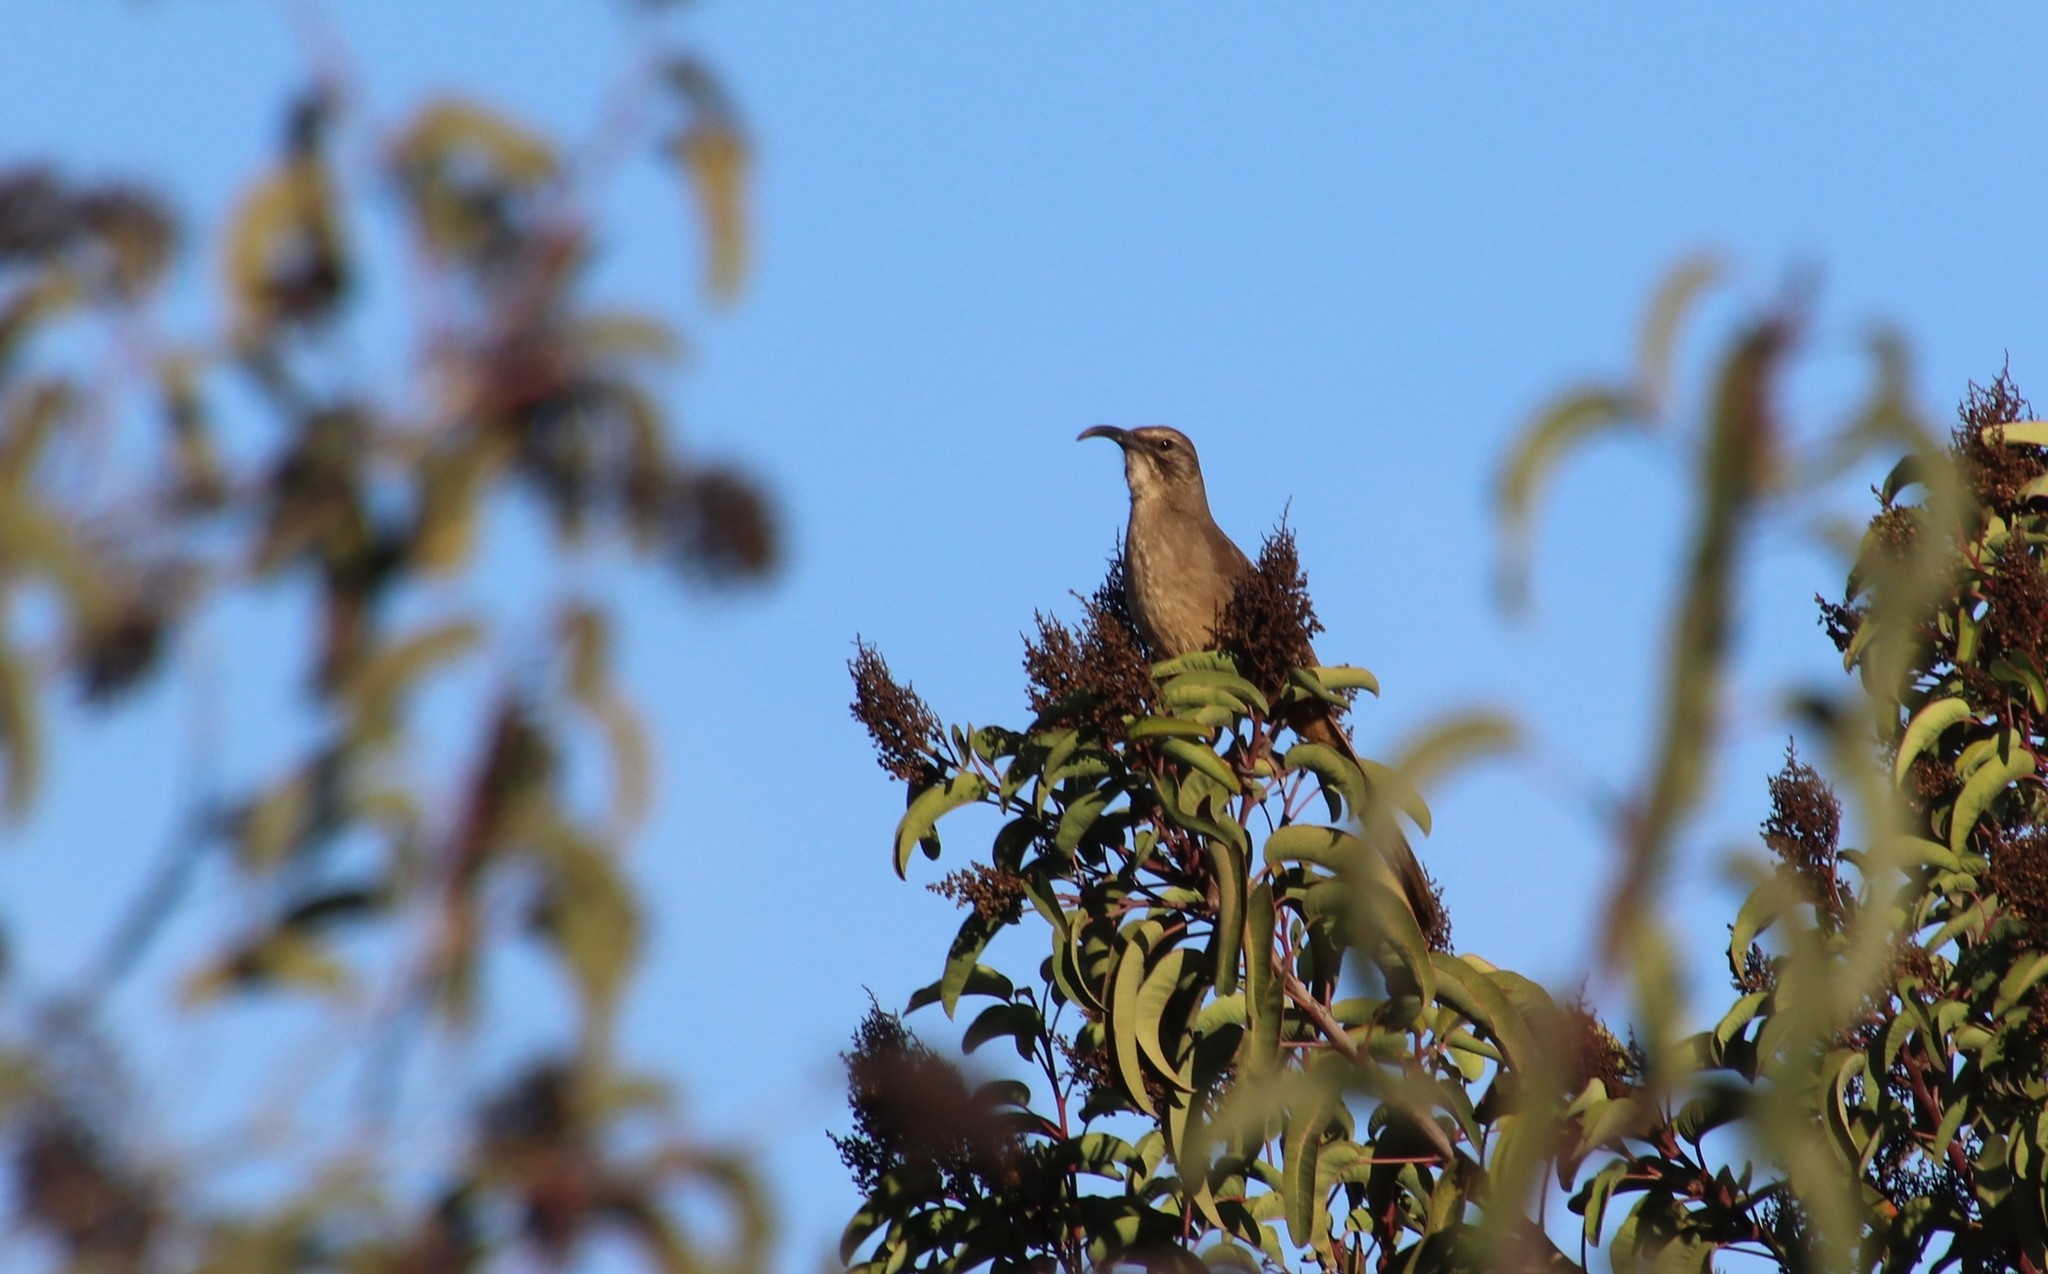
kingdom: Animalia
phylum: Chordata
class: Aves
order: Passeriformes
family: Mimidae
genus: Toxostoma
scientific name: Toxostoma redivivum
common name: California thrasher
